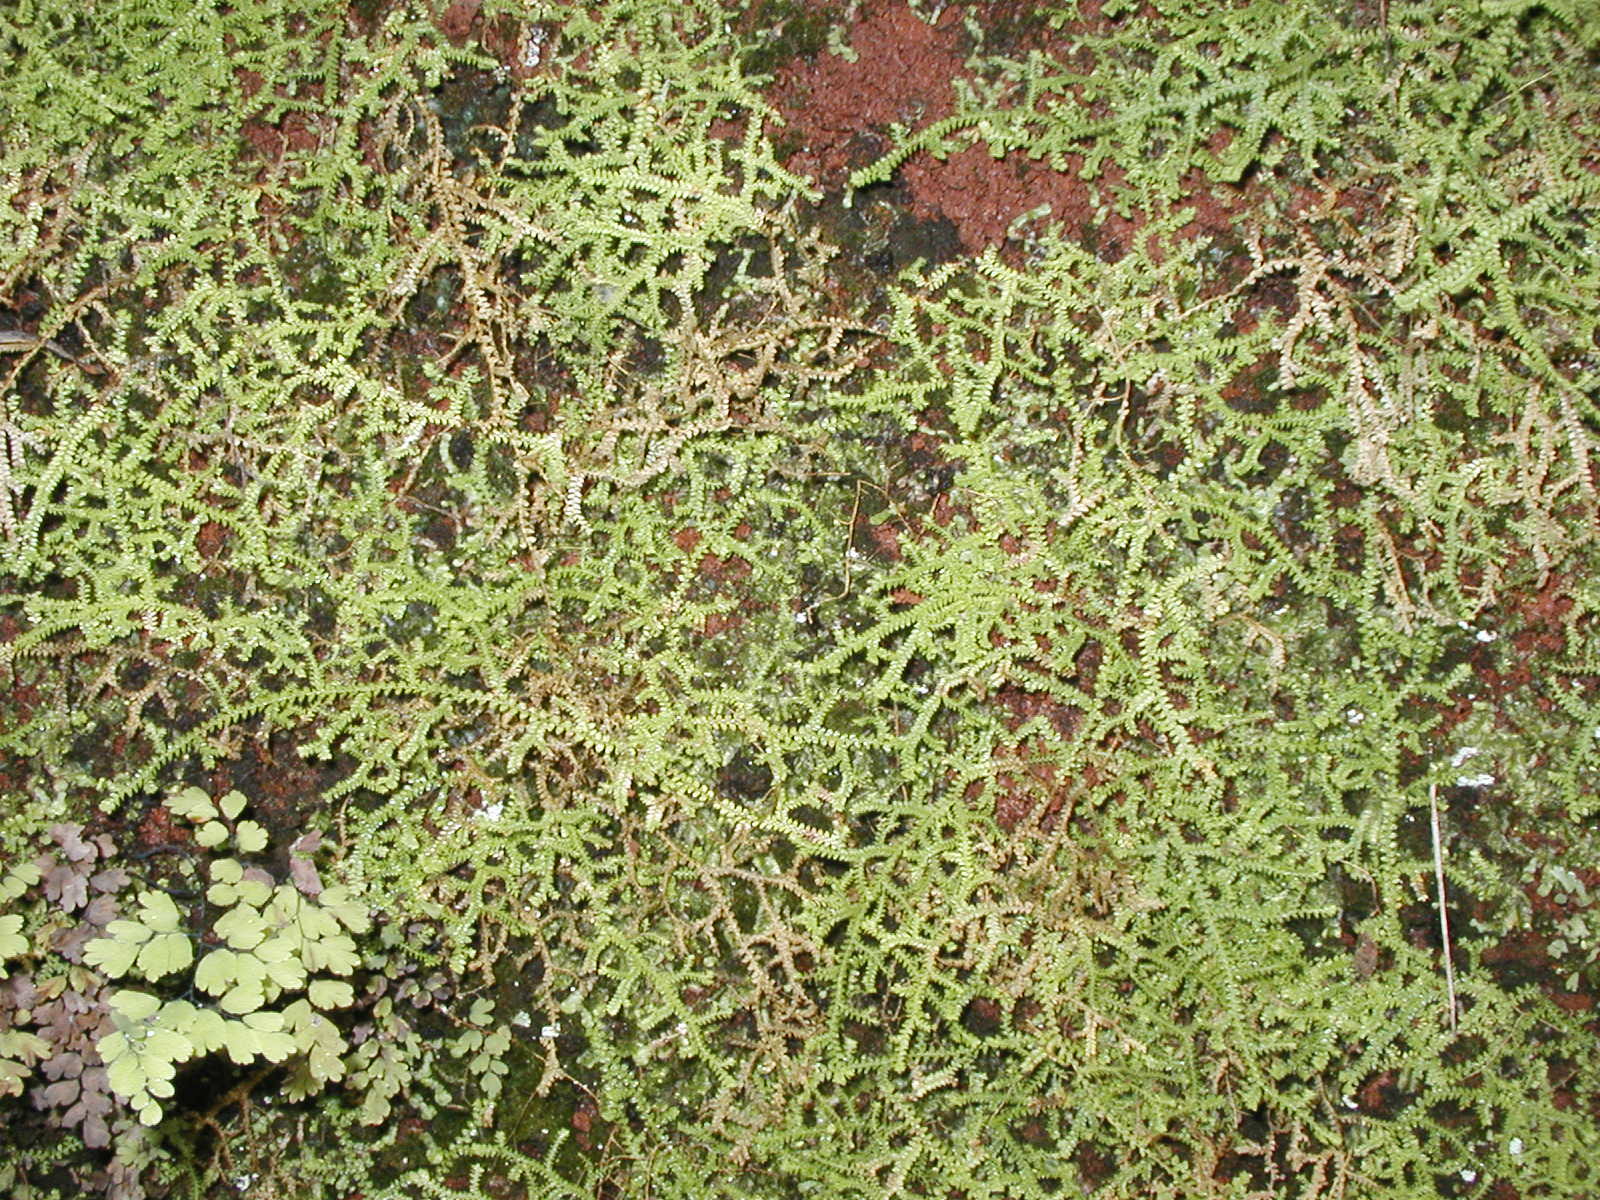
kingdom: Plantae
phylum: Tracheophyta
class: Lycopodiopsida
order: Selaginellales
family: Selaginellaceae
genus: Selaginella
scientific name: Selaginella denticulata
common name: Toothed-leaved clubmoss
